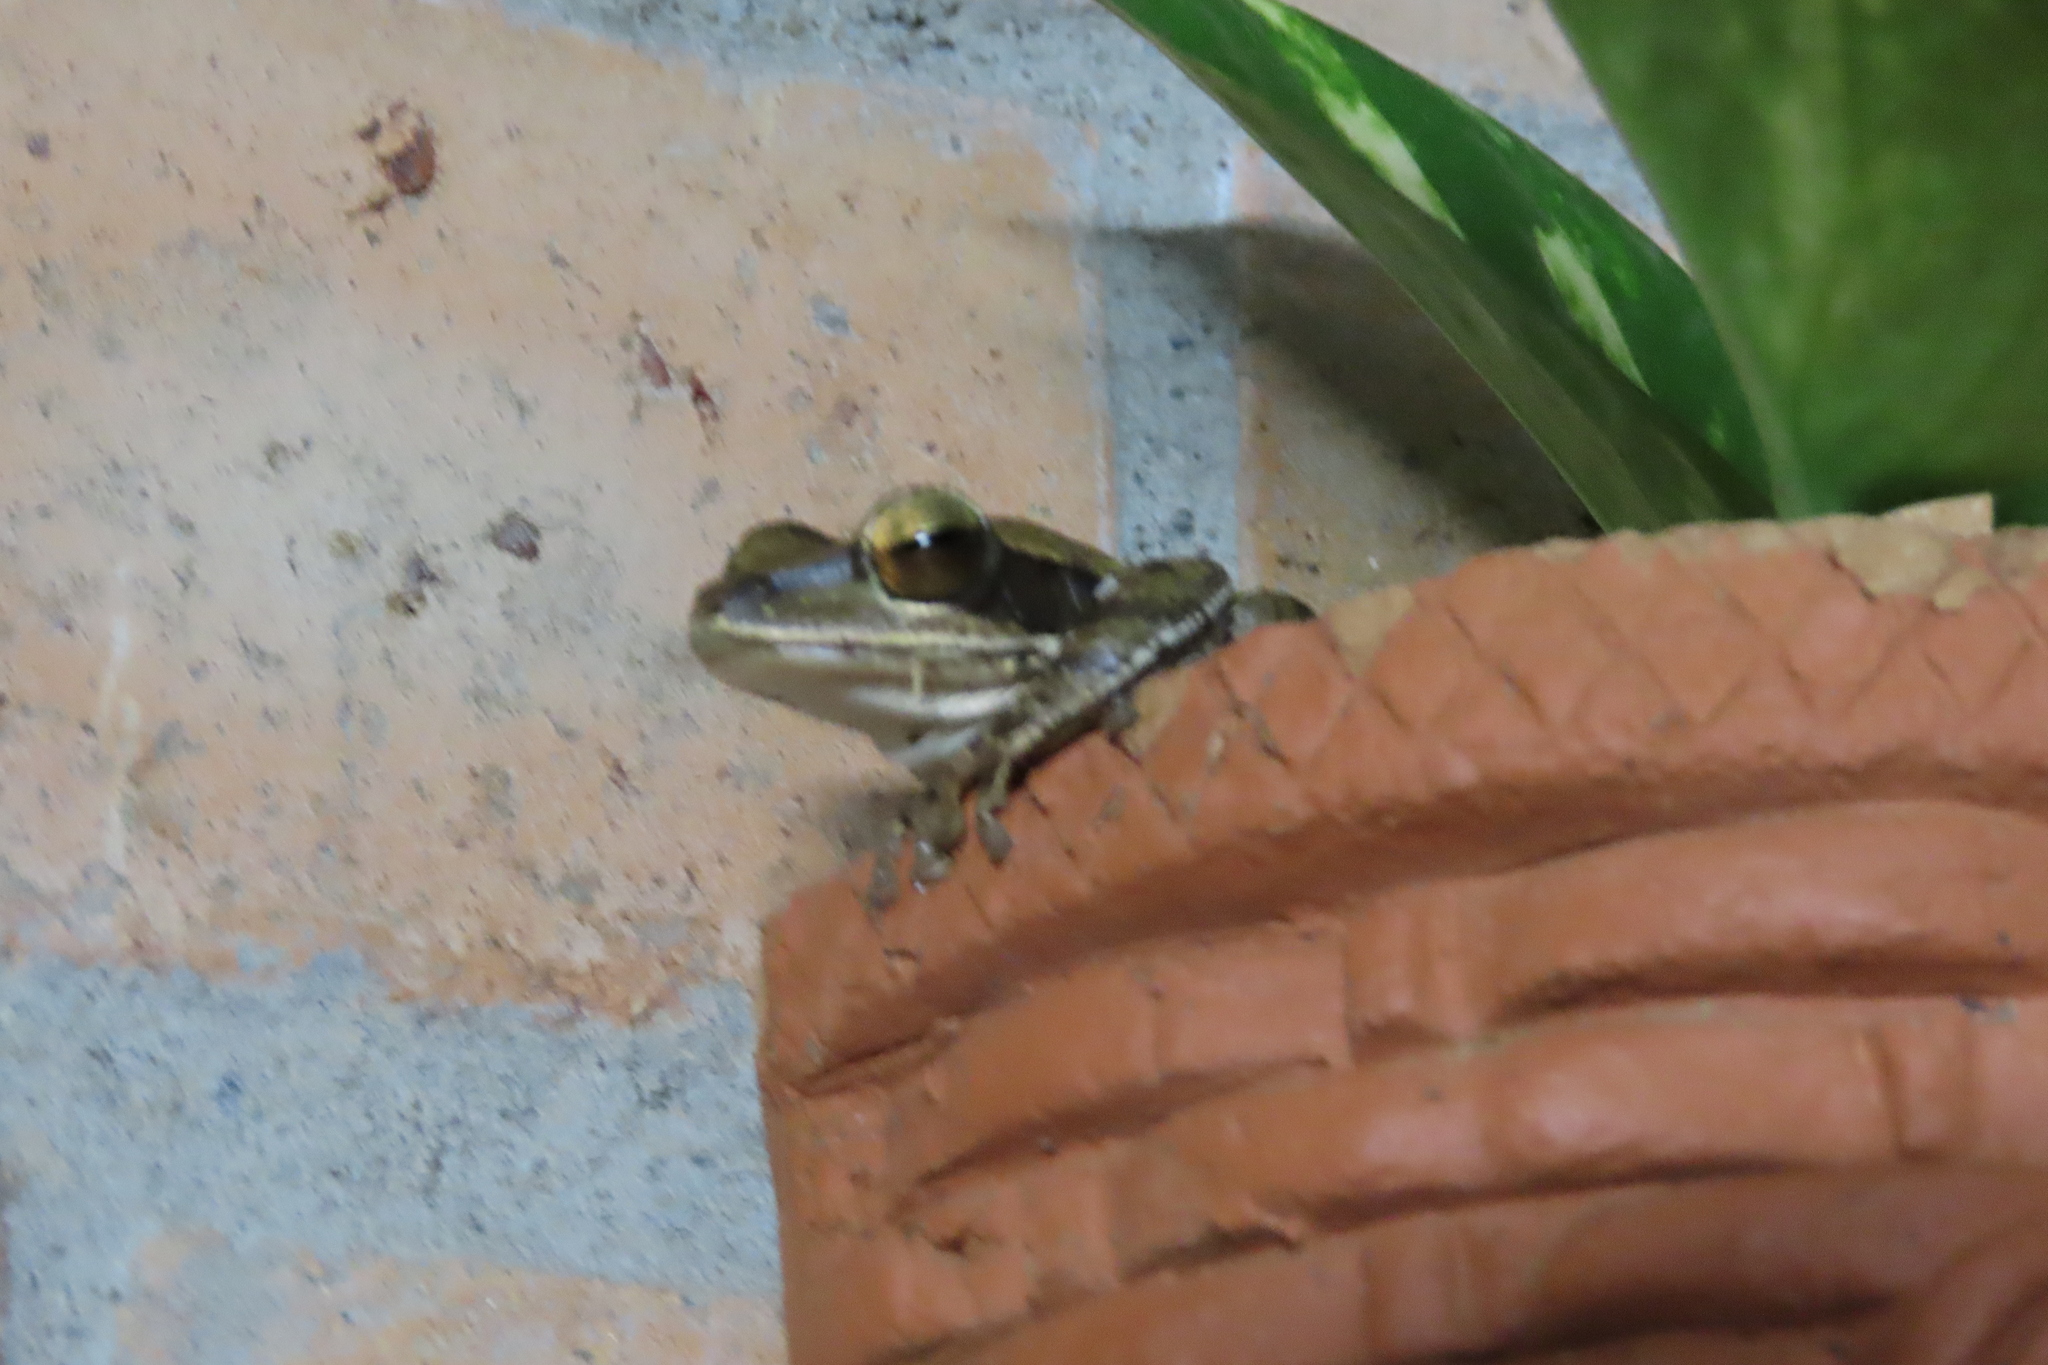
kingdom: Animalia
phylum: Chordata
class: Amphibia
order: Anura
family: Rhacophoridae
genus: Polypedates
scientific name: Polypedates maculatus
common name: Himalayan tree frog
